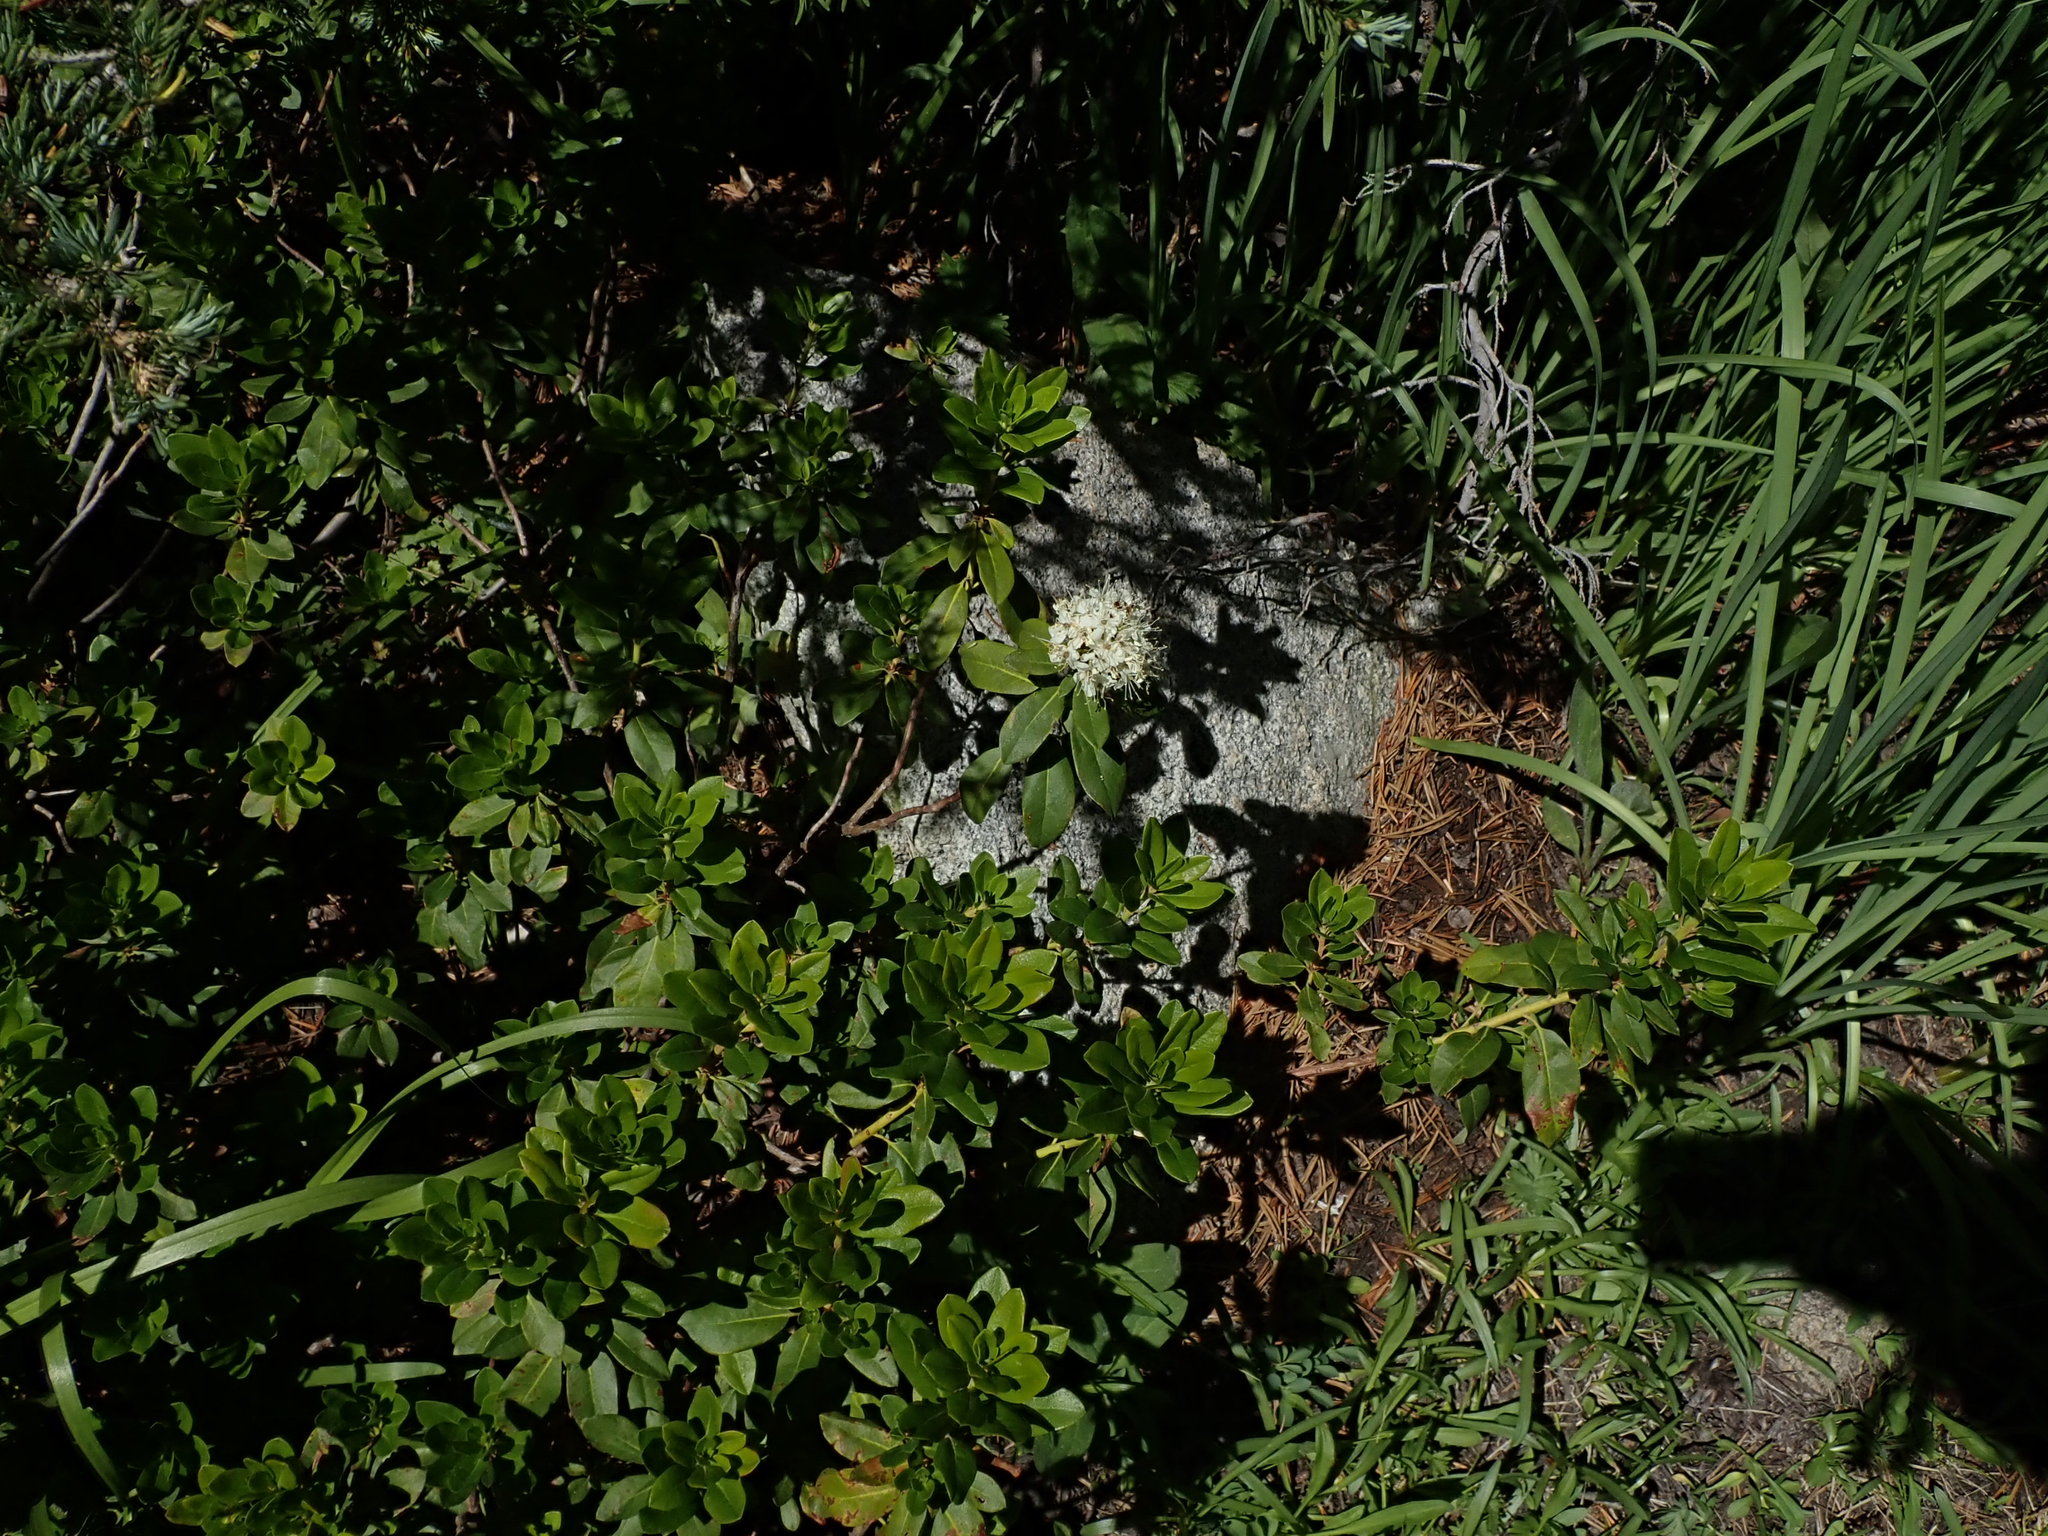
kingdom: Plantae
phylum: Tracheophyta
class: Magnoliopsida
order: Ericales
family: Ericaceae
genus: Rhododendron
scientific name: Rhododendron columbianum
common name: Western labrador tea
